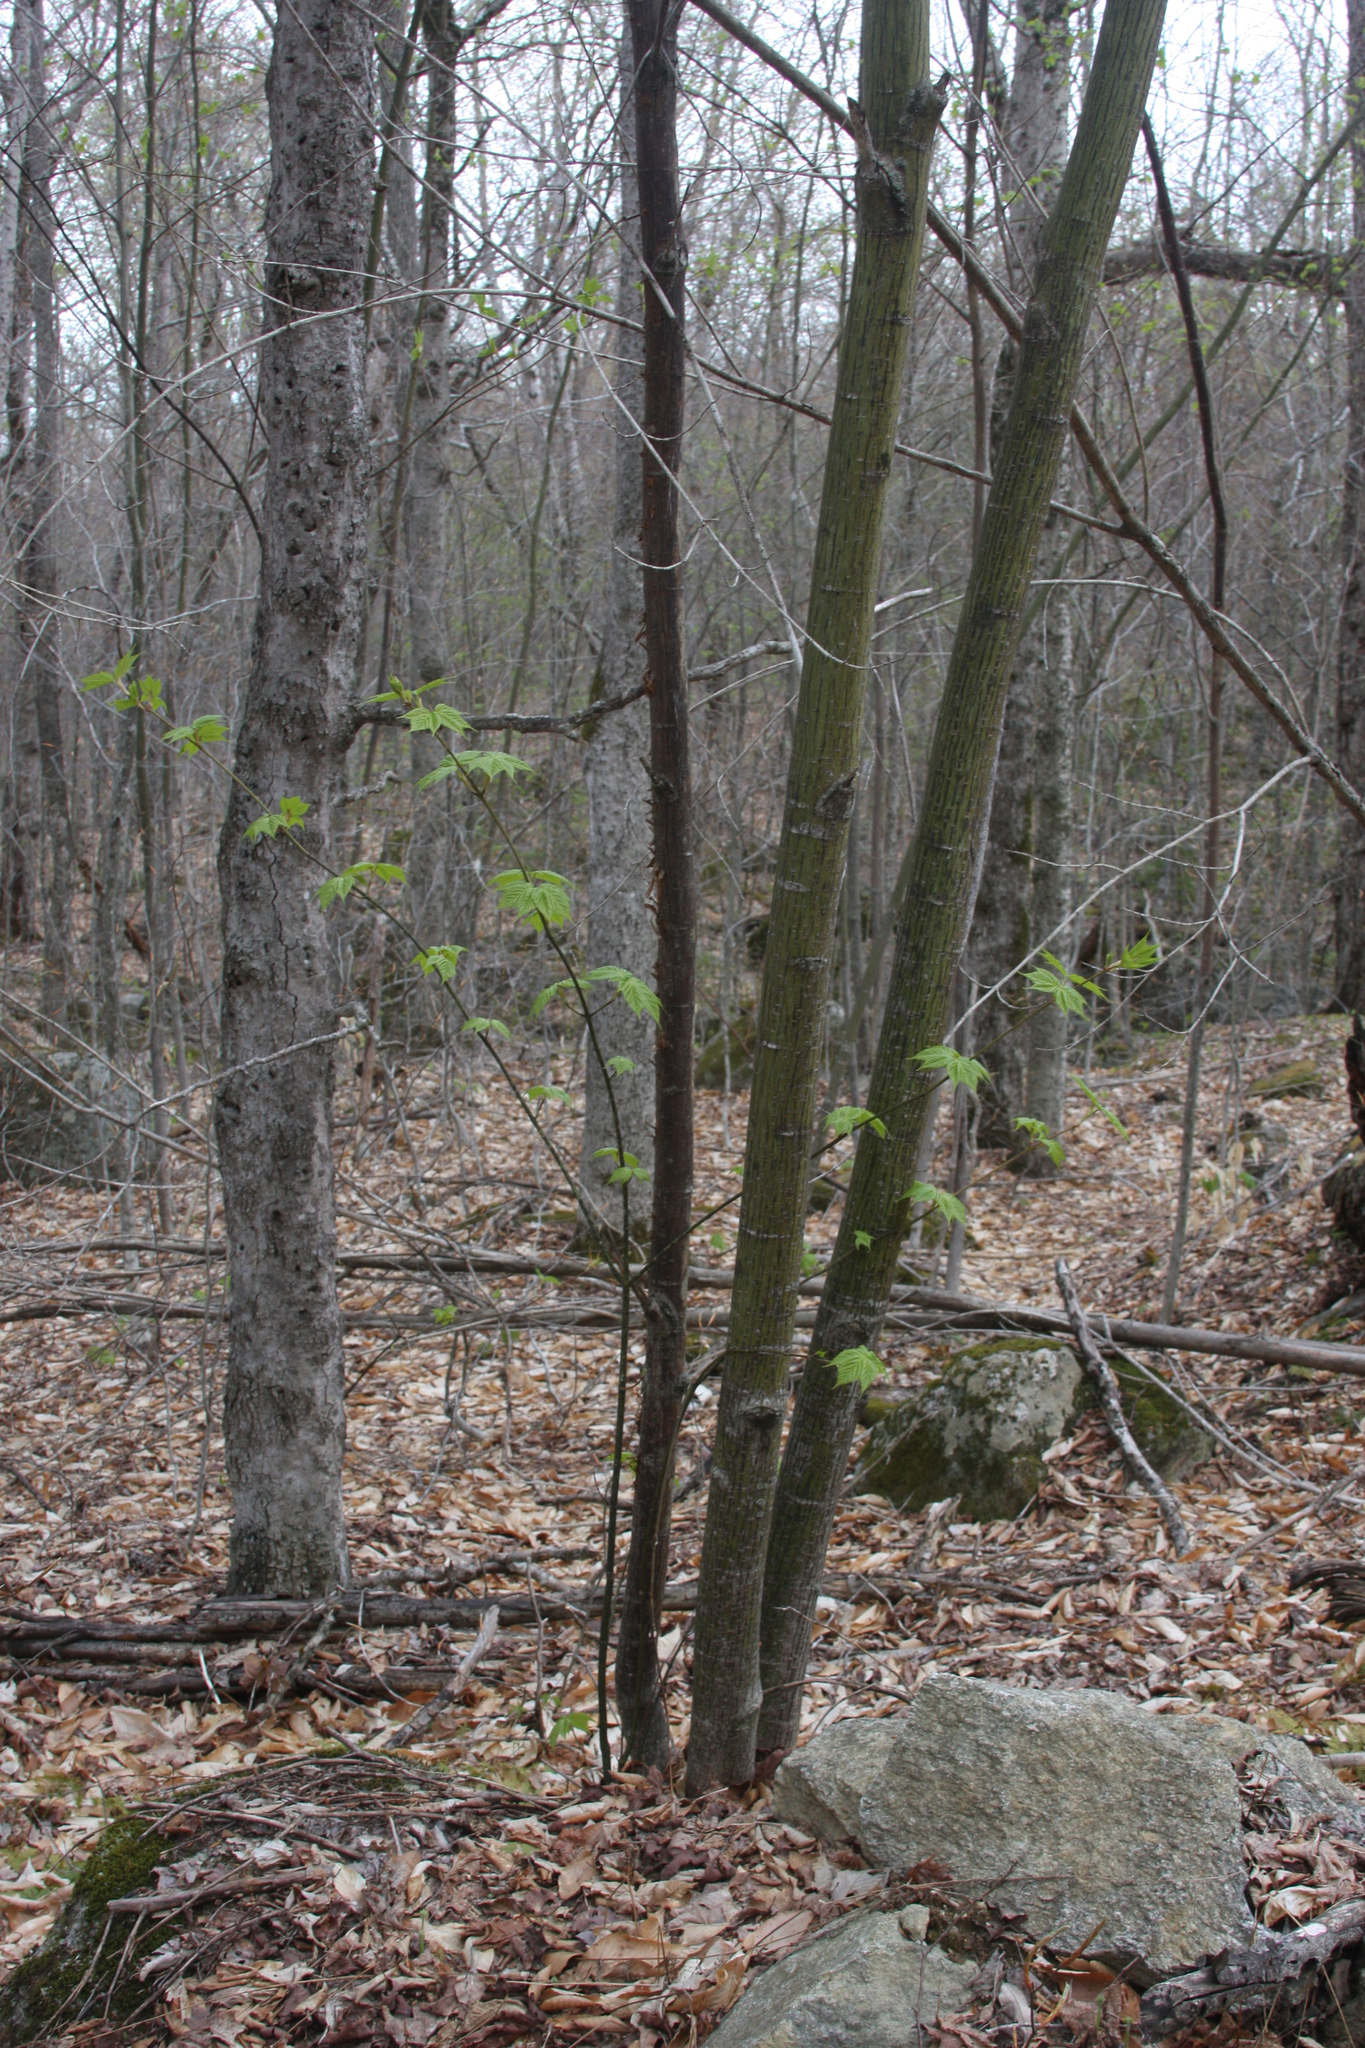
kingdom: Plantae
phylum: Tracheophyta
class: Magnoliopsida
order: Sapindales
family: Sapindaceae
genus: Acer
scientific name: Acer pensylvanicum
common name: Moosewood
